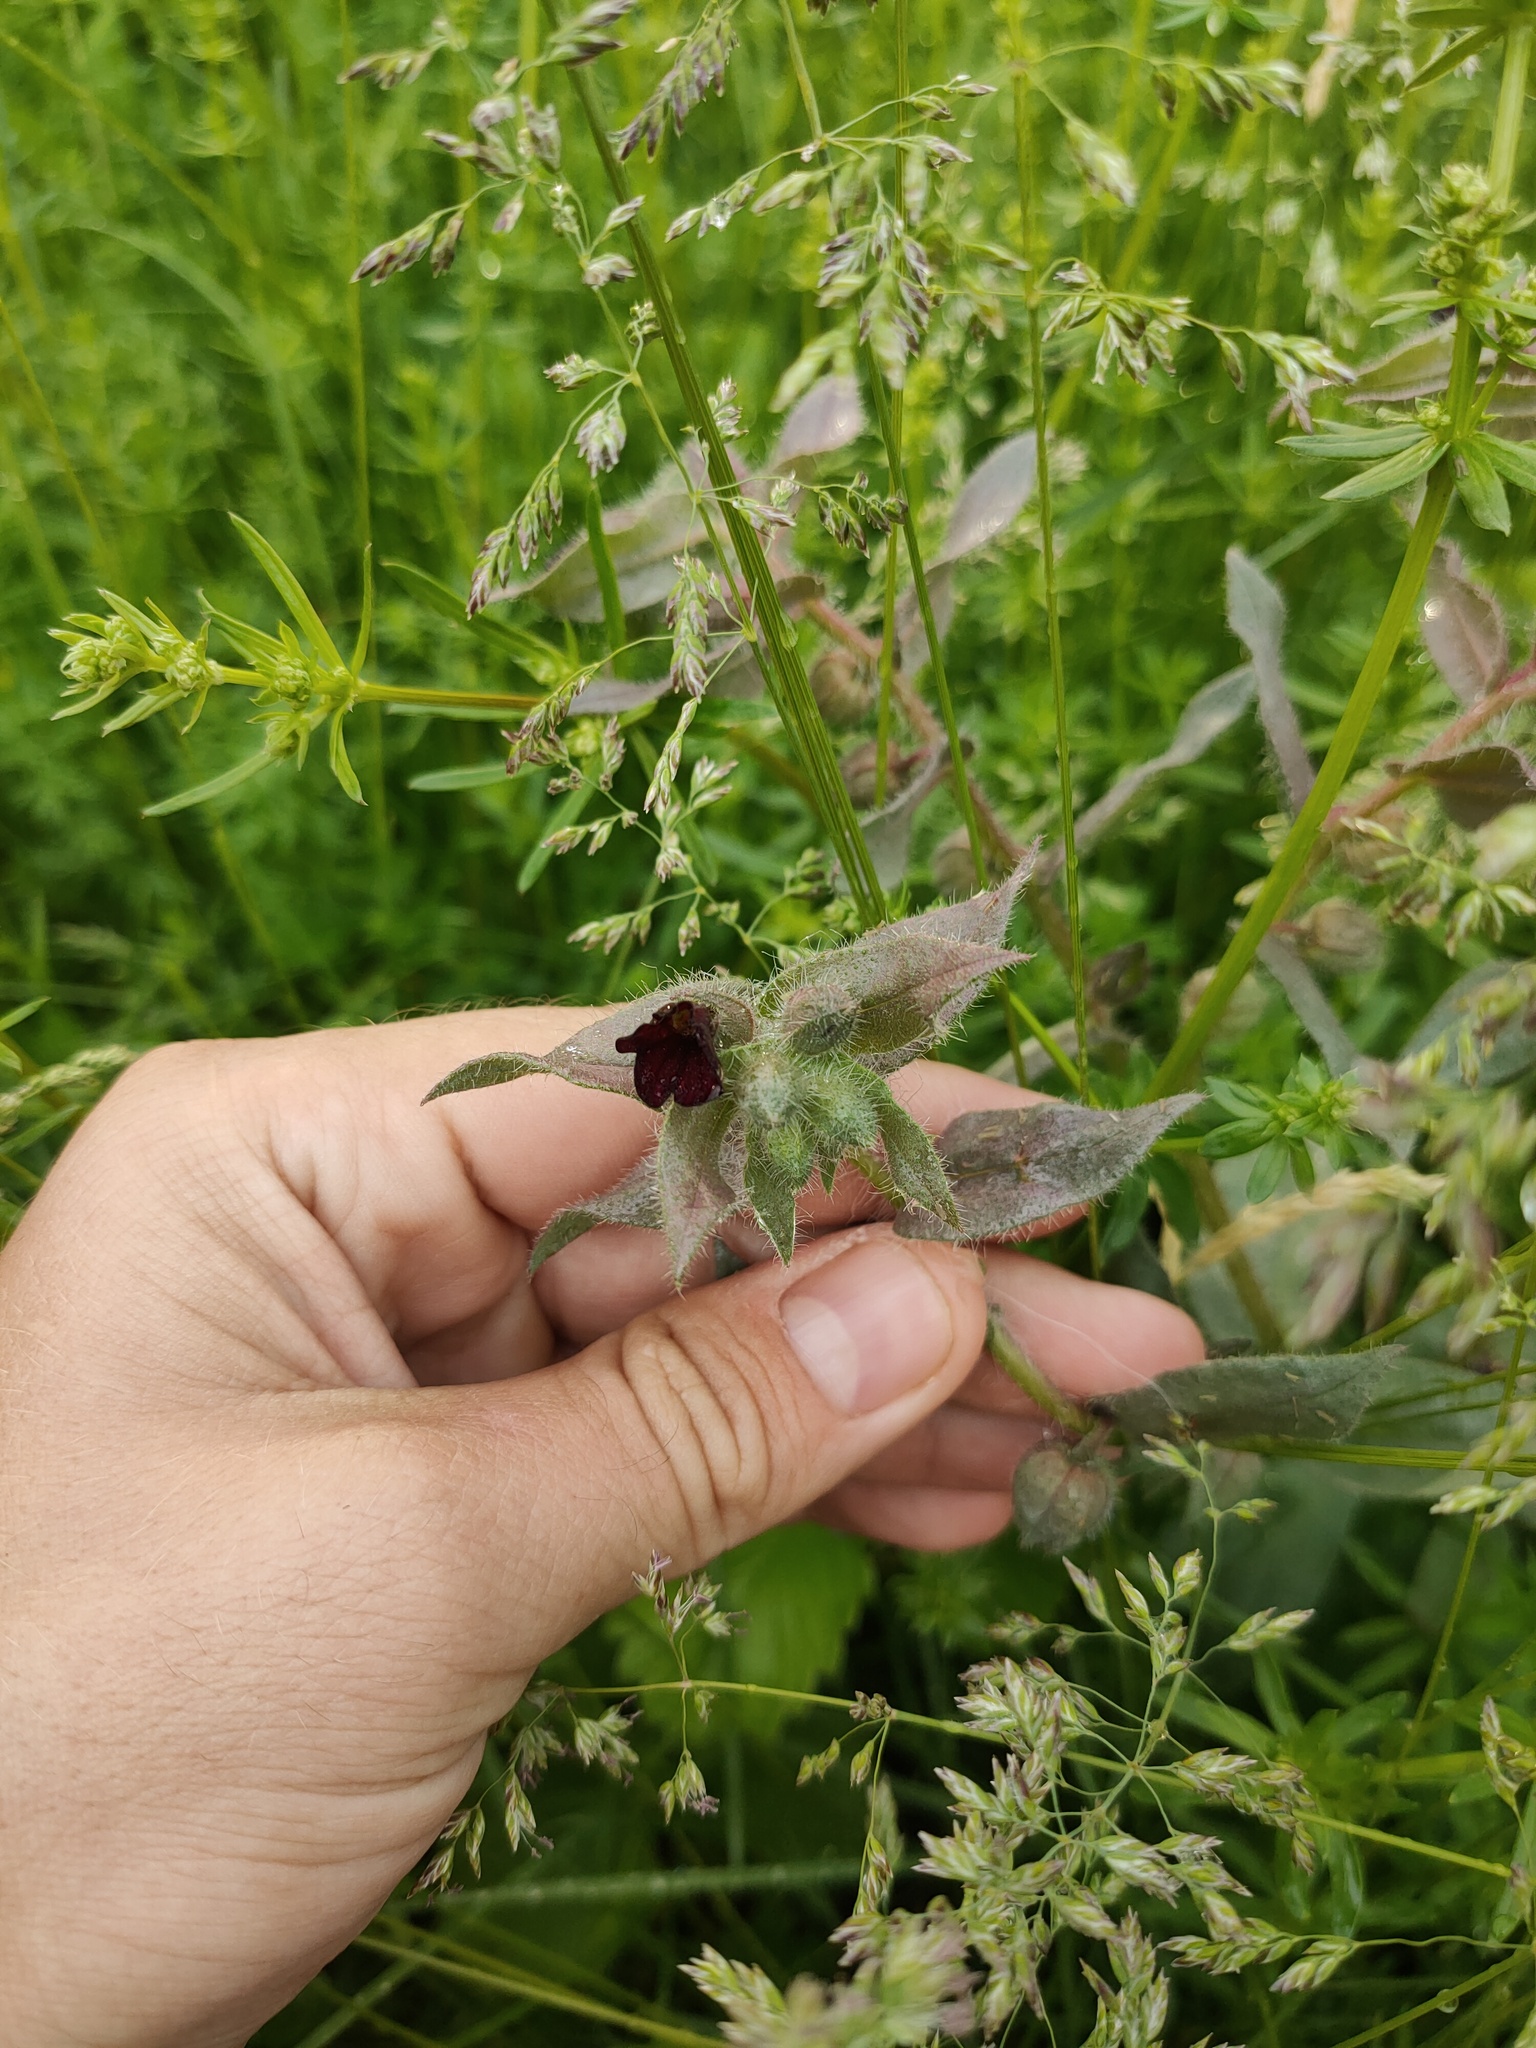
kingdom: Plantae
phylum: Tracheophyta
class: Magnoliopsida
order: Boraginales
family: Boraginaceae
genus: Nonea
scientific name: Nonea pulla
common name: Brown nonea
